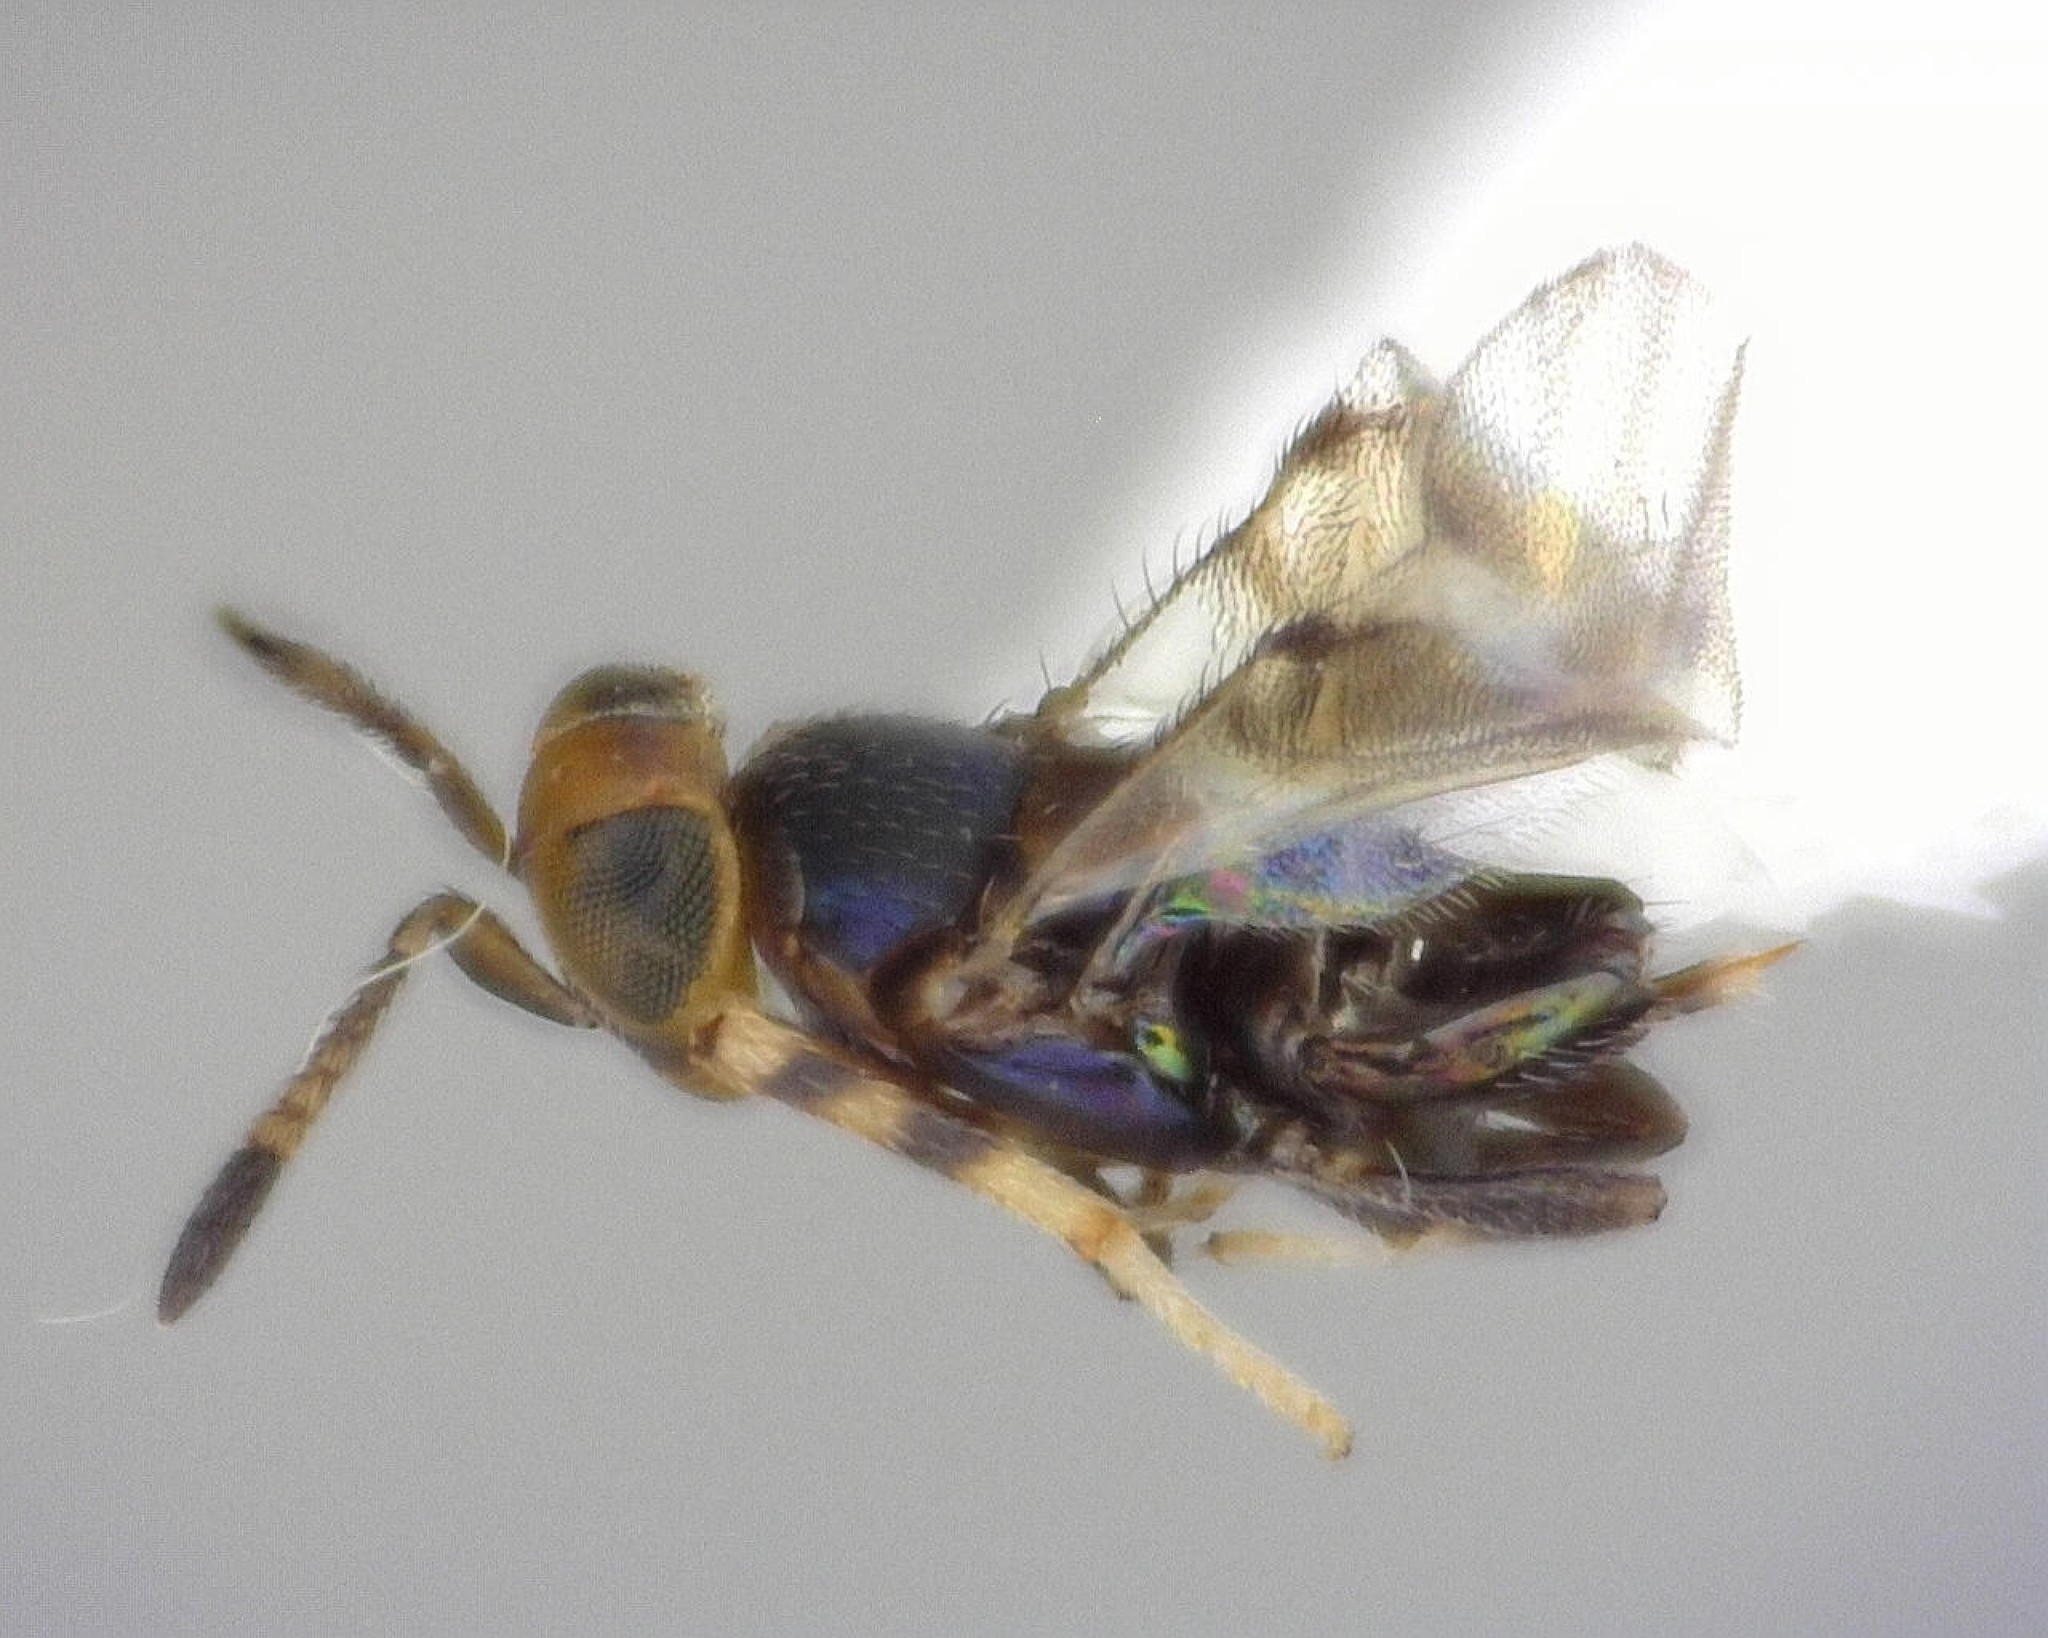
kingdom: Animalia
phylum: Arthropoda
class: Insecta
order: Hymenoptera
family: Encyrtidae
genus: Neococcidencyrtus
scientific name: Neococcidencyrtus hynodis
